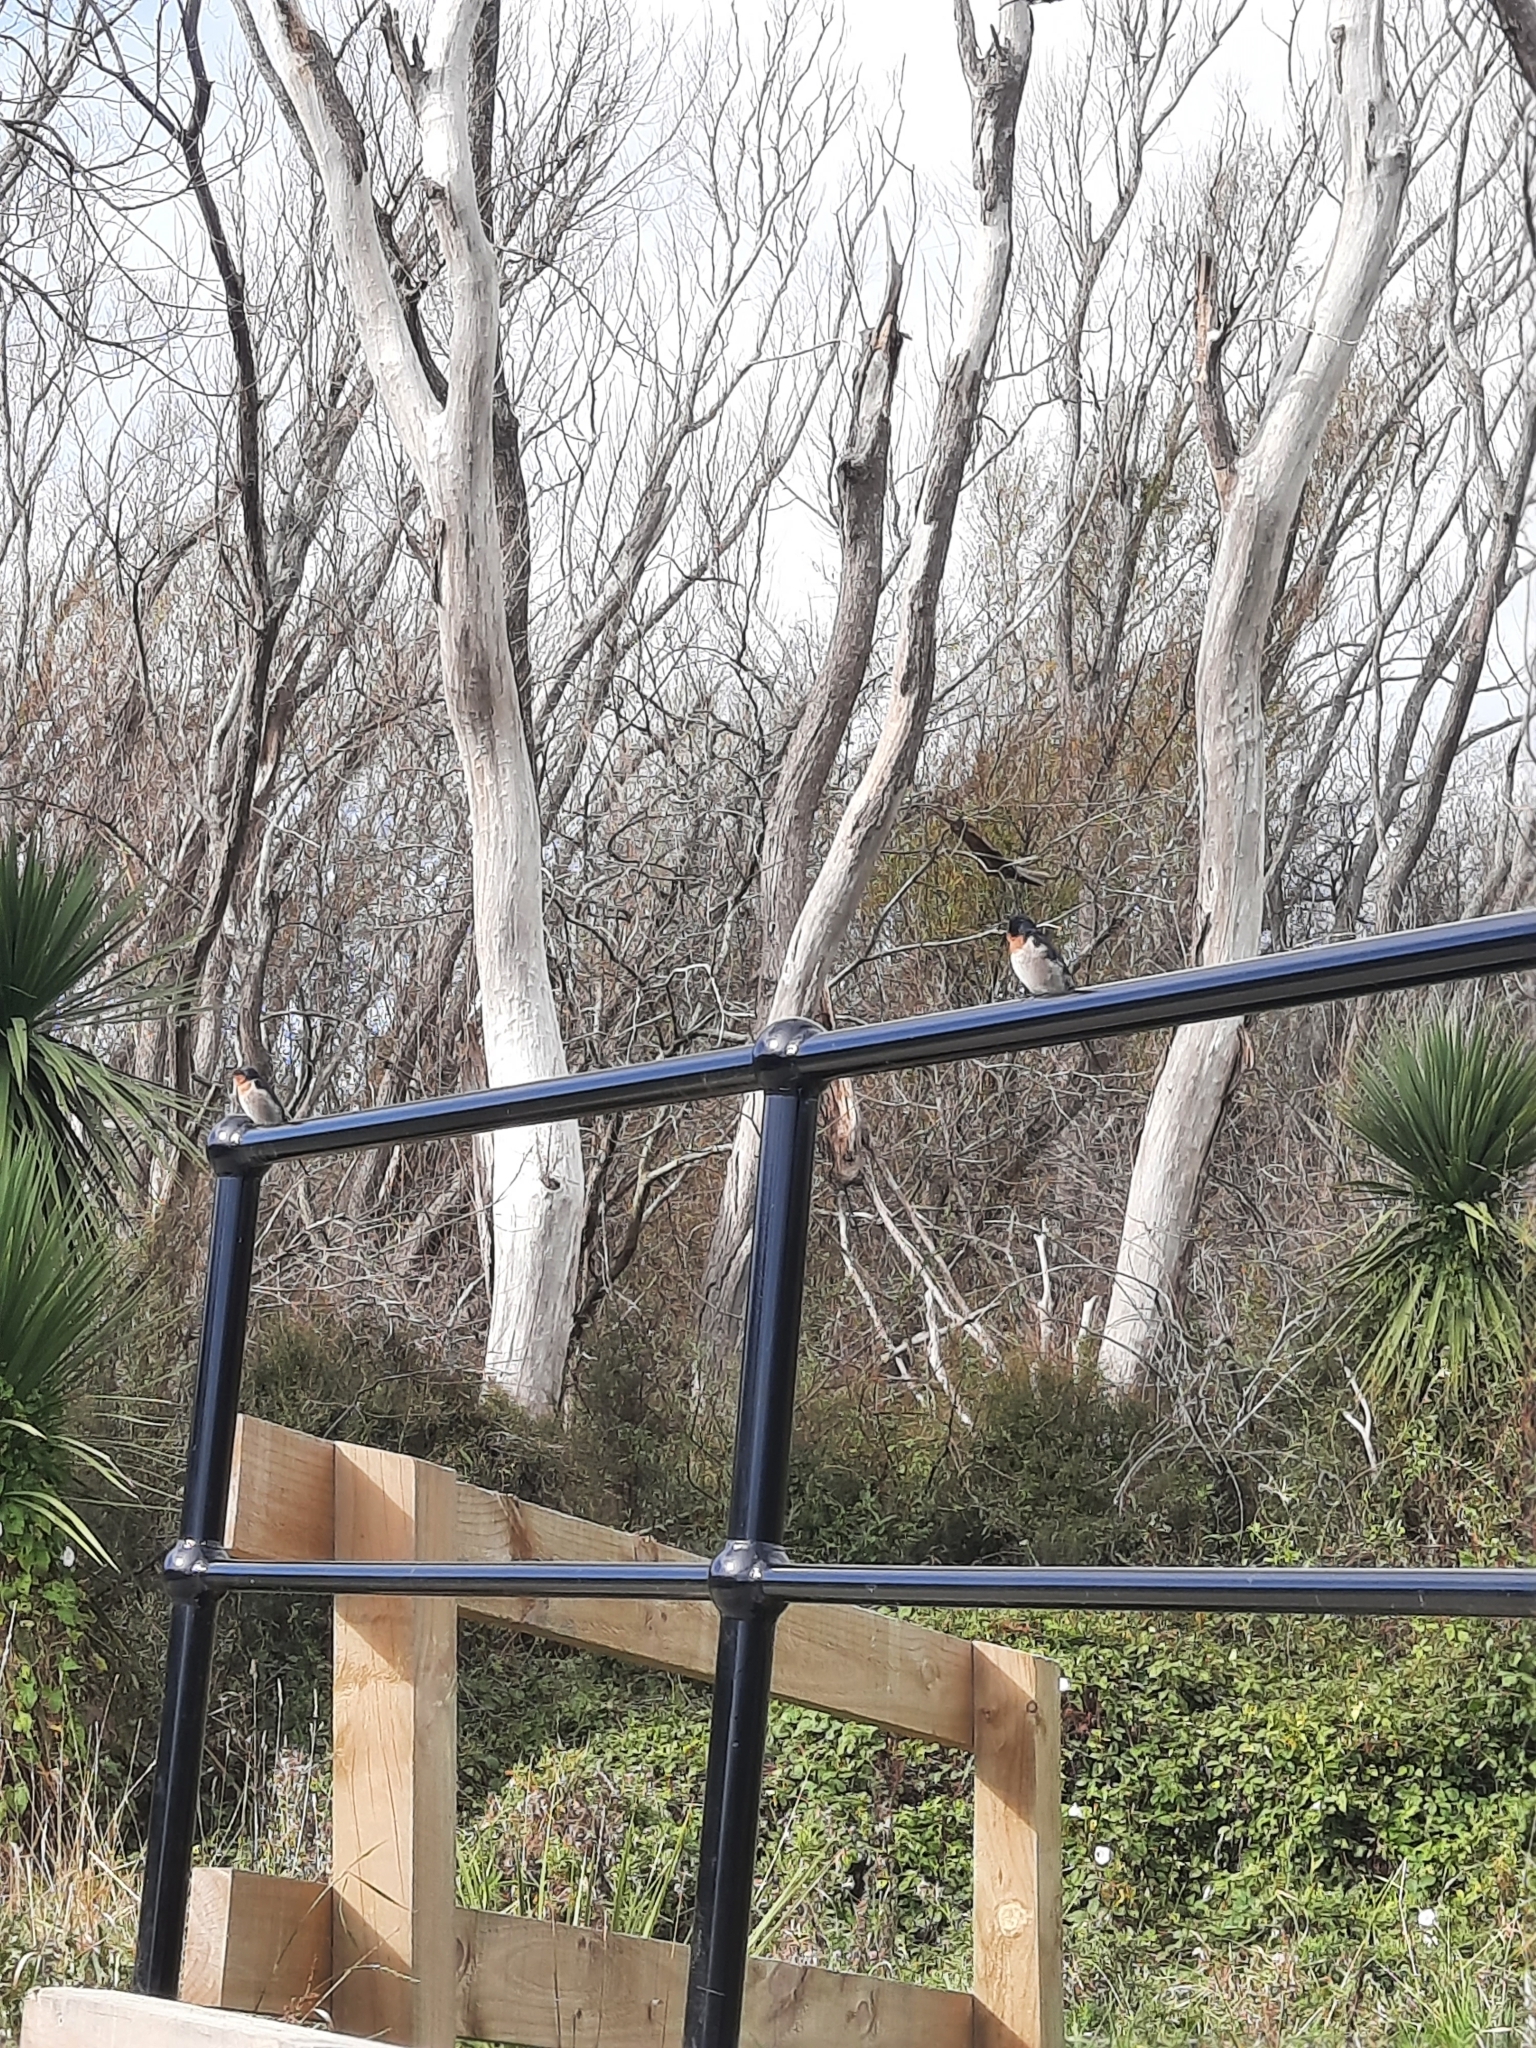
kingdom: Animalia
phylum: Chordata
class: Aves
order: Passeriformes
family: Hirundinidae
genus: Hirundo
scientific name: Hirundo neoxena
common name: Welcome swallow
